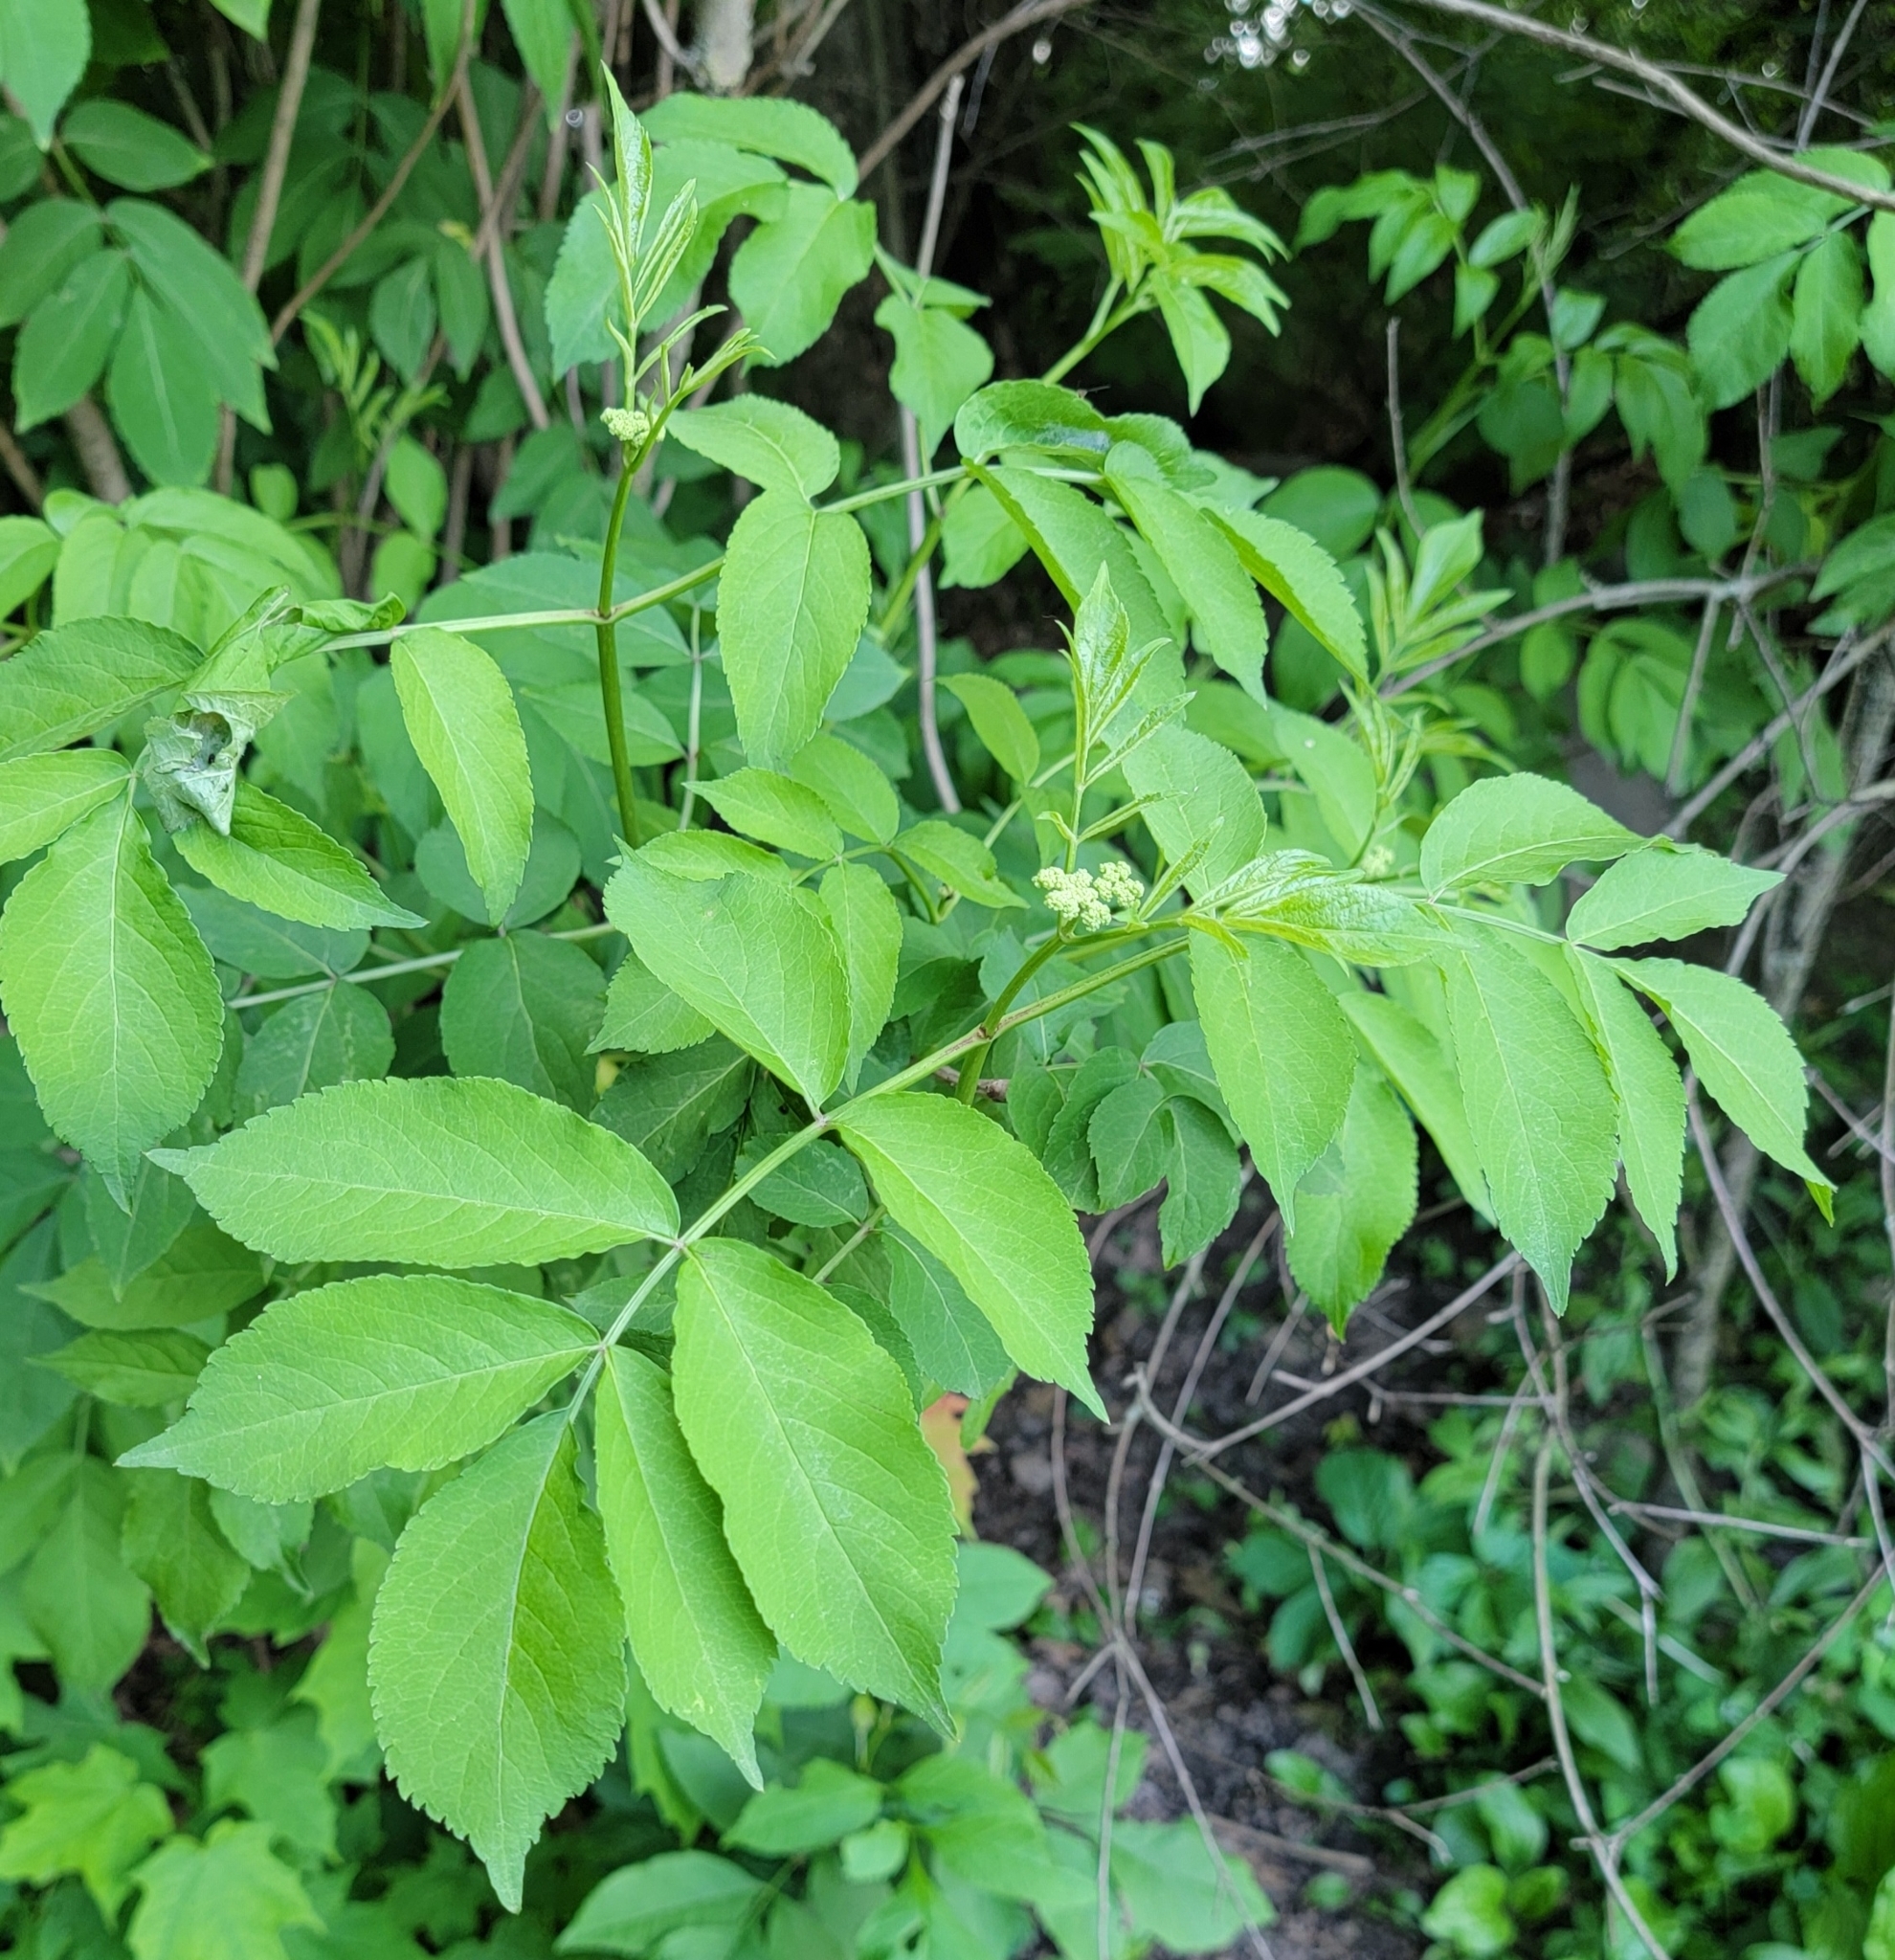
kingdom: Plantae
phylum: Tracheophyta
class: Magnoliopsida
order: Dipsacales
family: Viburnaceae
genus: Sambucus
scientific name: Sambucus canadensis
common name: American elder
